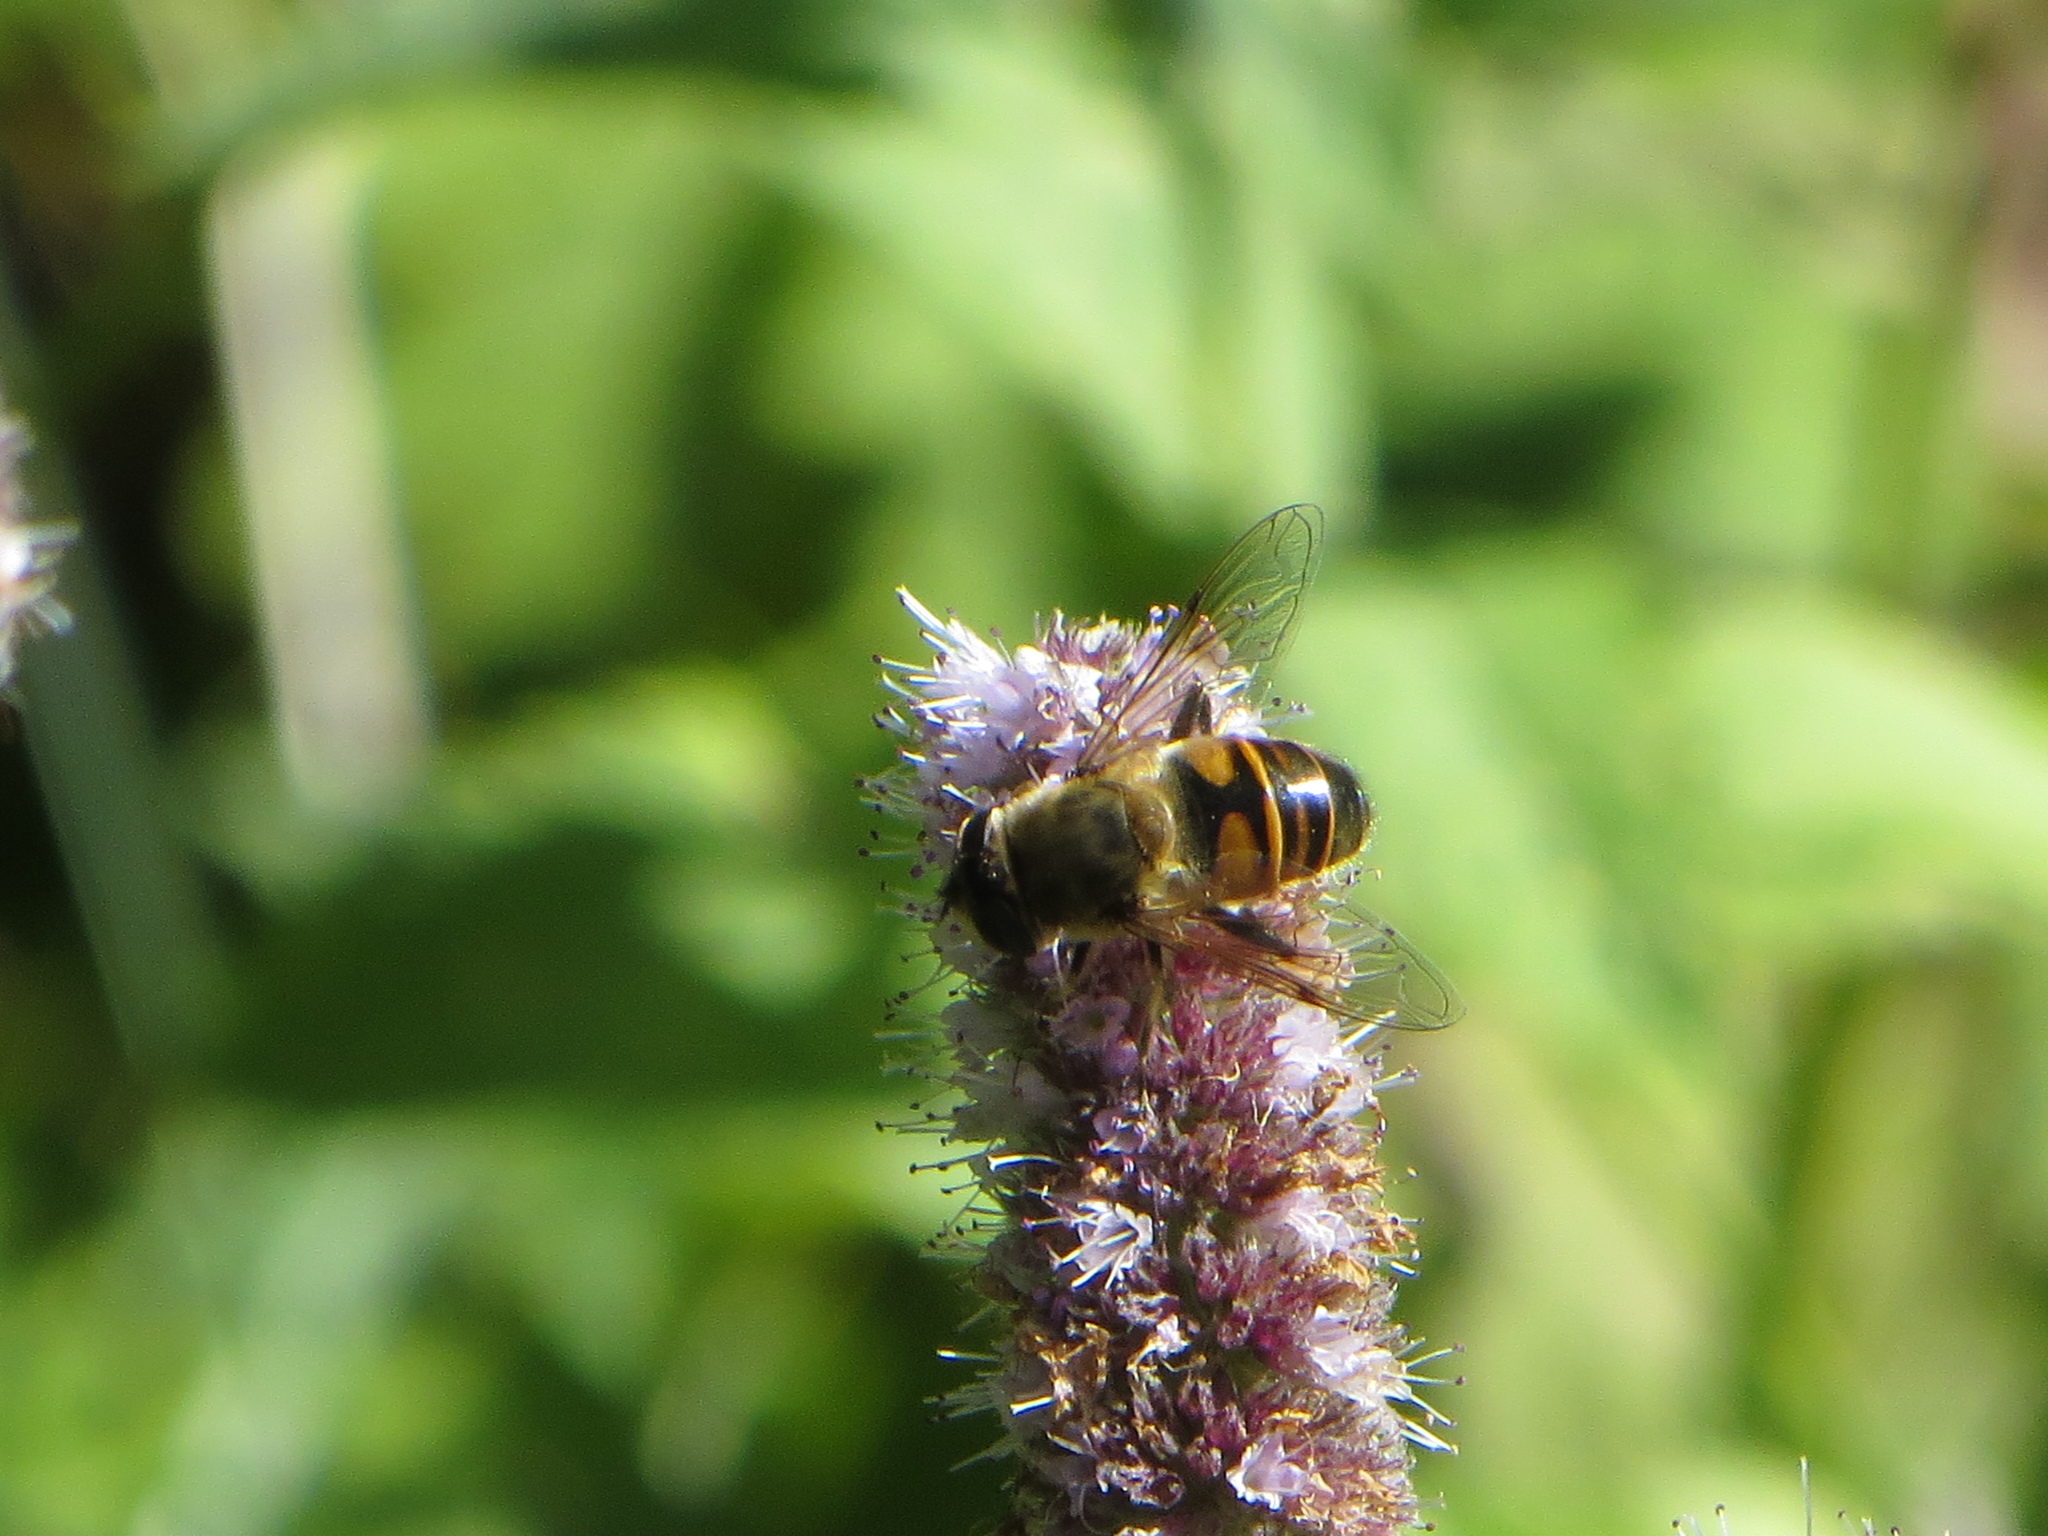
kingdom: Animalia
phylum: Arthropoda
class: Insecta
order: Diptera
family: Syrphidae
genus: Eristalis
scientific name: Eristalis tenax
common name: Drone fly
